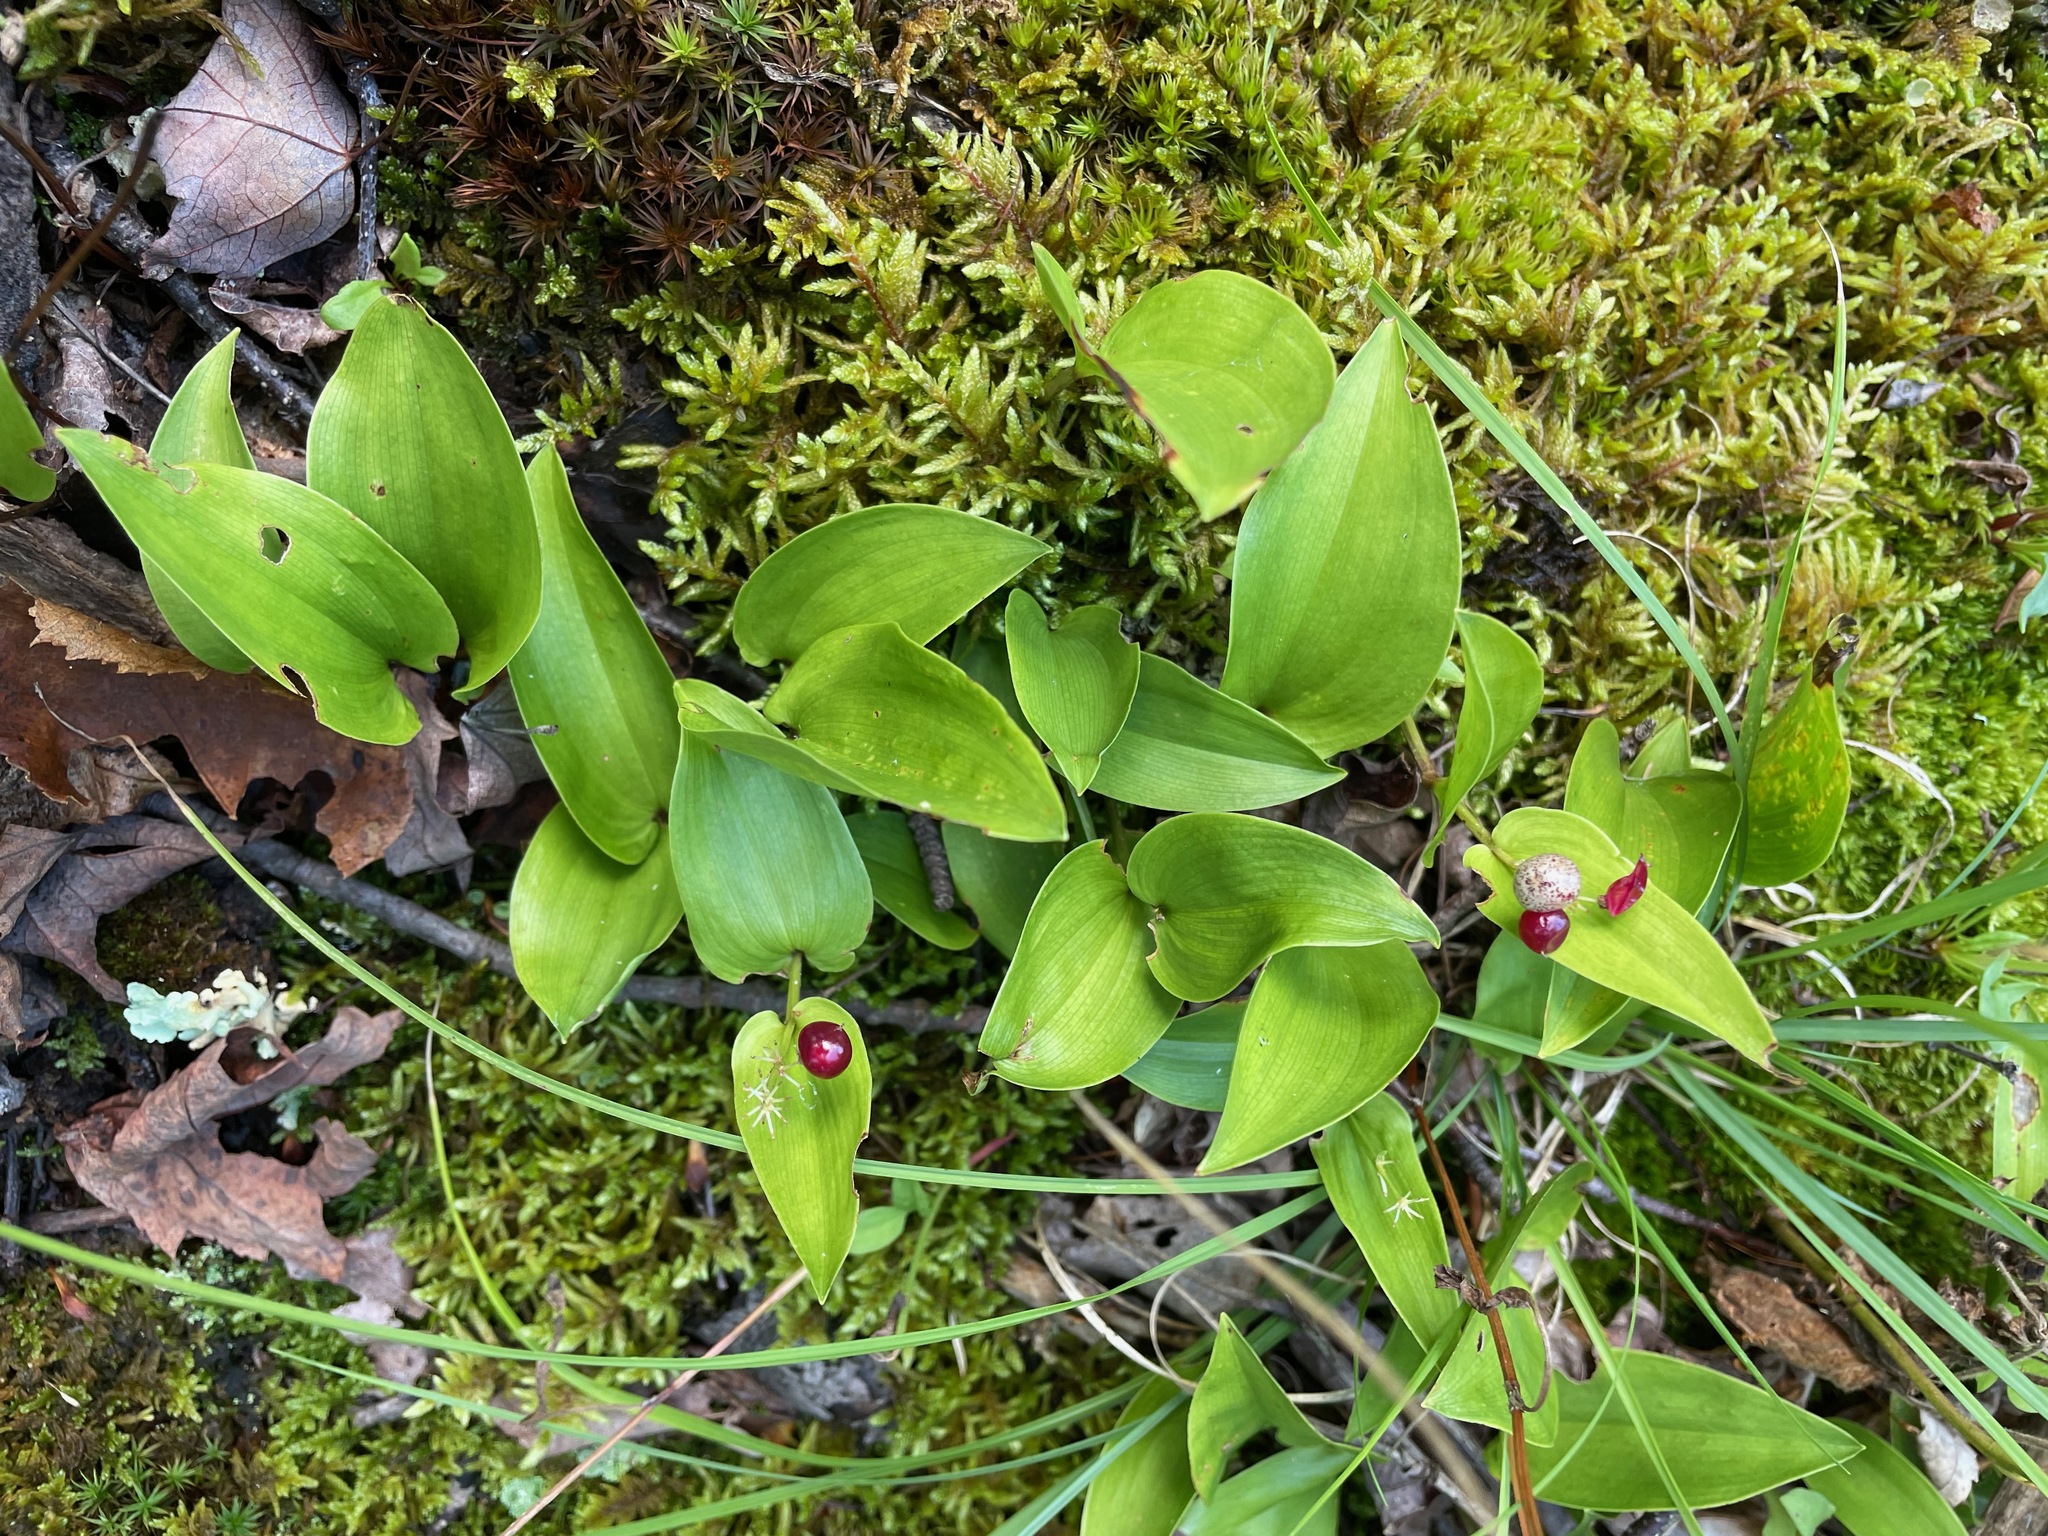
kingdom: Plantae
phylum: Tracheophyta
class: Liliopsida
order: Asparagales
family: Asparagaceae
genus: Maianthemum
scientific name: Maianthemum canadense
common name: False lily-of-the-valley
